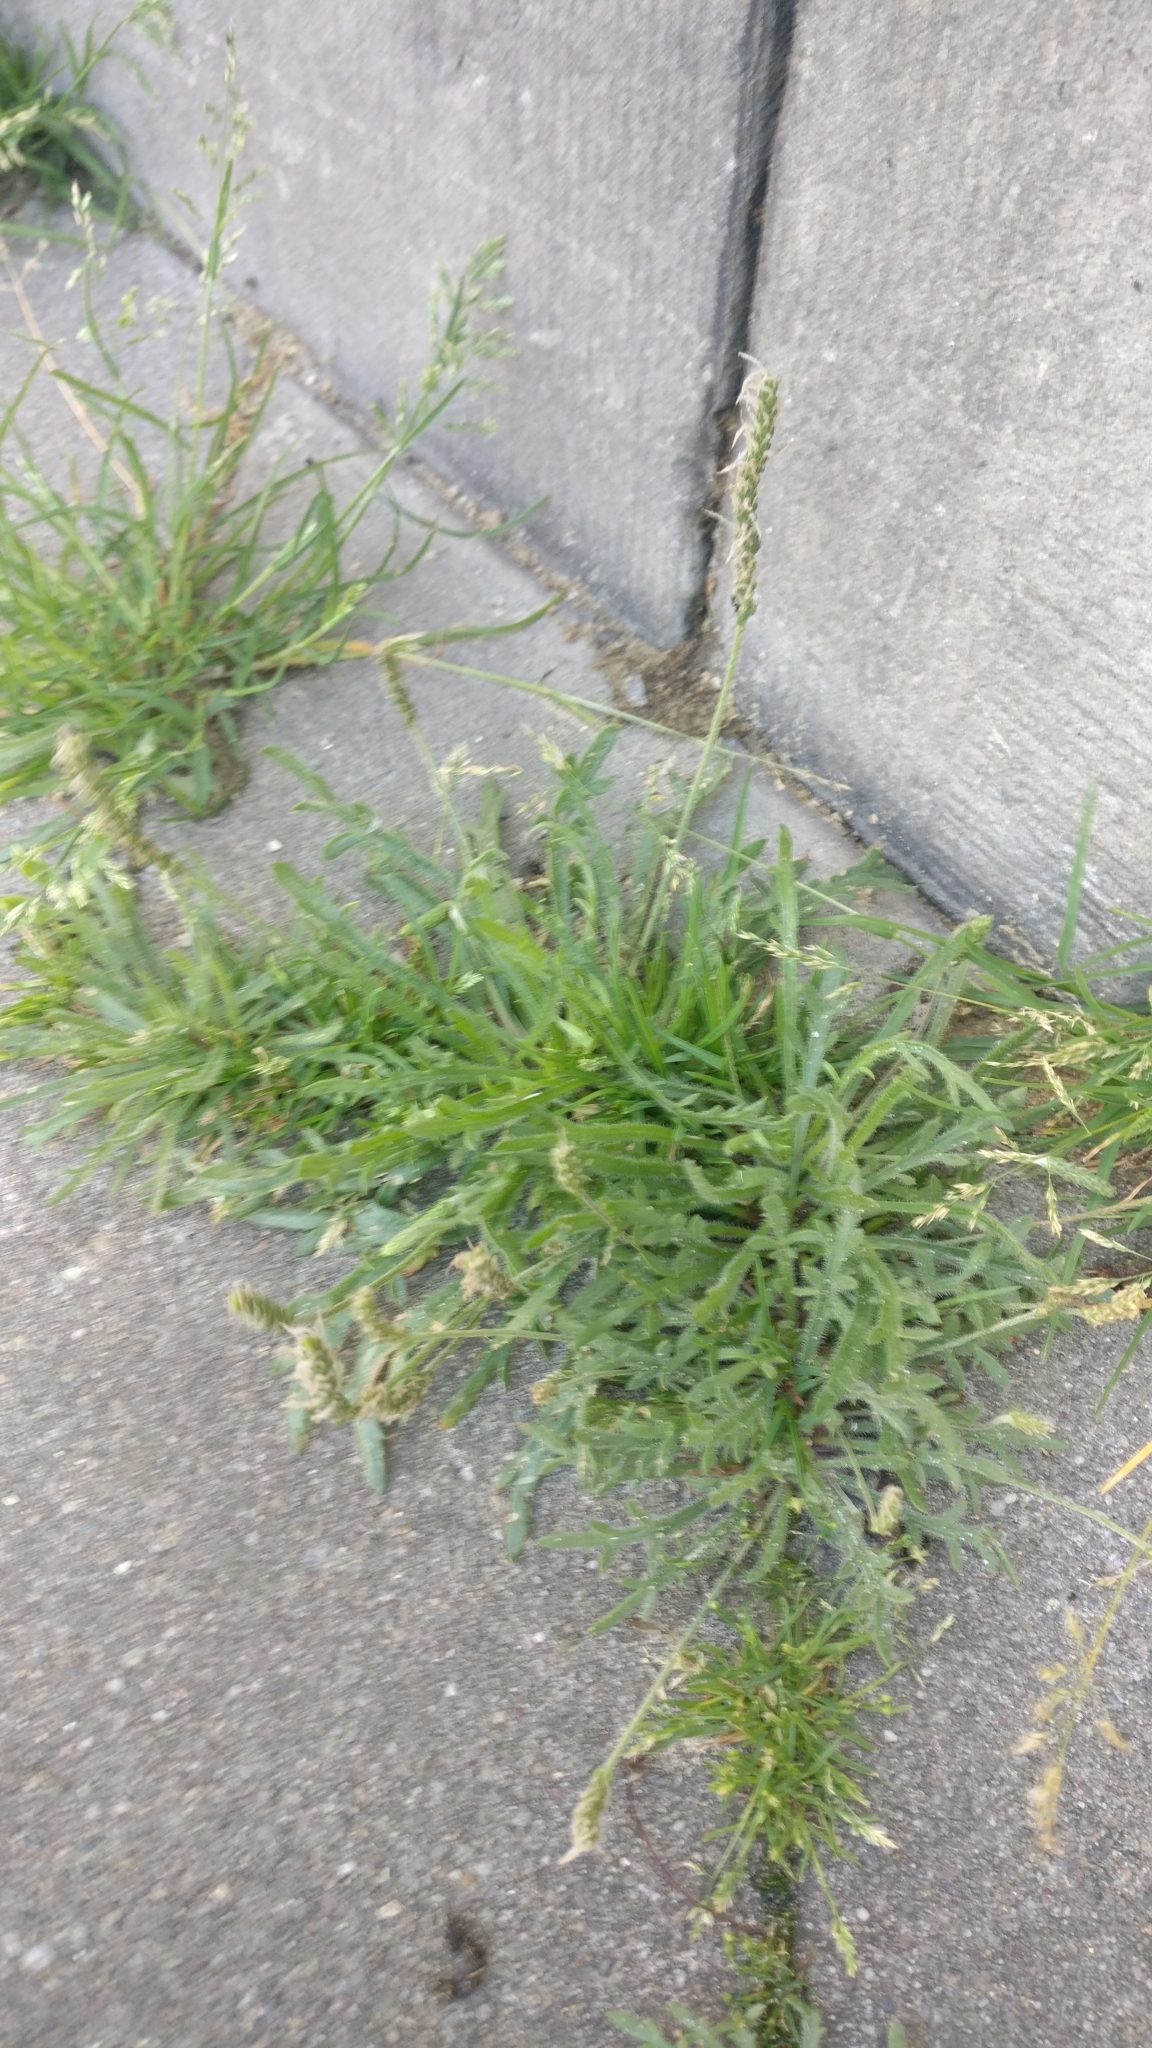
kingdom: Plantae
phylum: Tracheophyta
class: Magnoliopsida
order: Lamiales
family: Plantaginaceae
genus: Plantago
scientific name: Plantago coronopus
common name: Buck's-horn plantain
